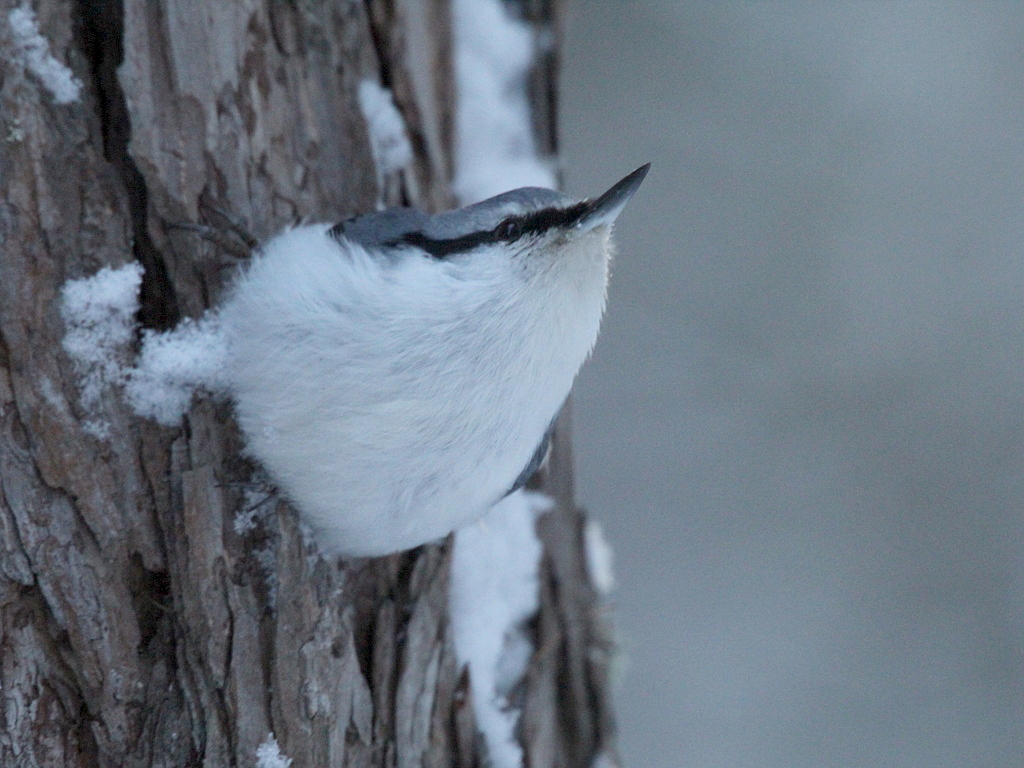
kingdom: Animalia
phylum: Chordata
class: Aves
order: Passeriformes
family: Sittidae
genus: Sitta
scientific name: Sitta europaea
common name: Eurasian nuthatch
